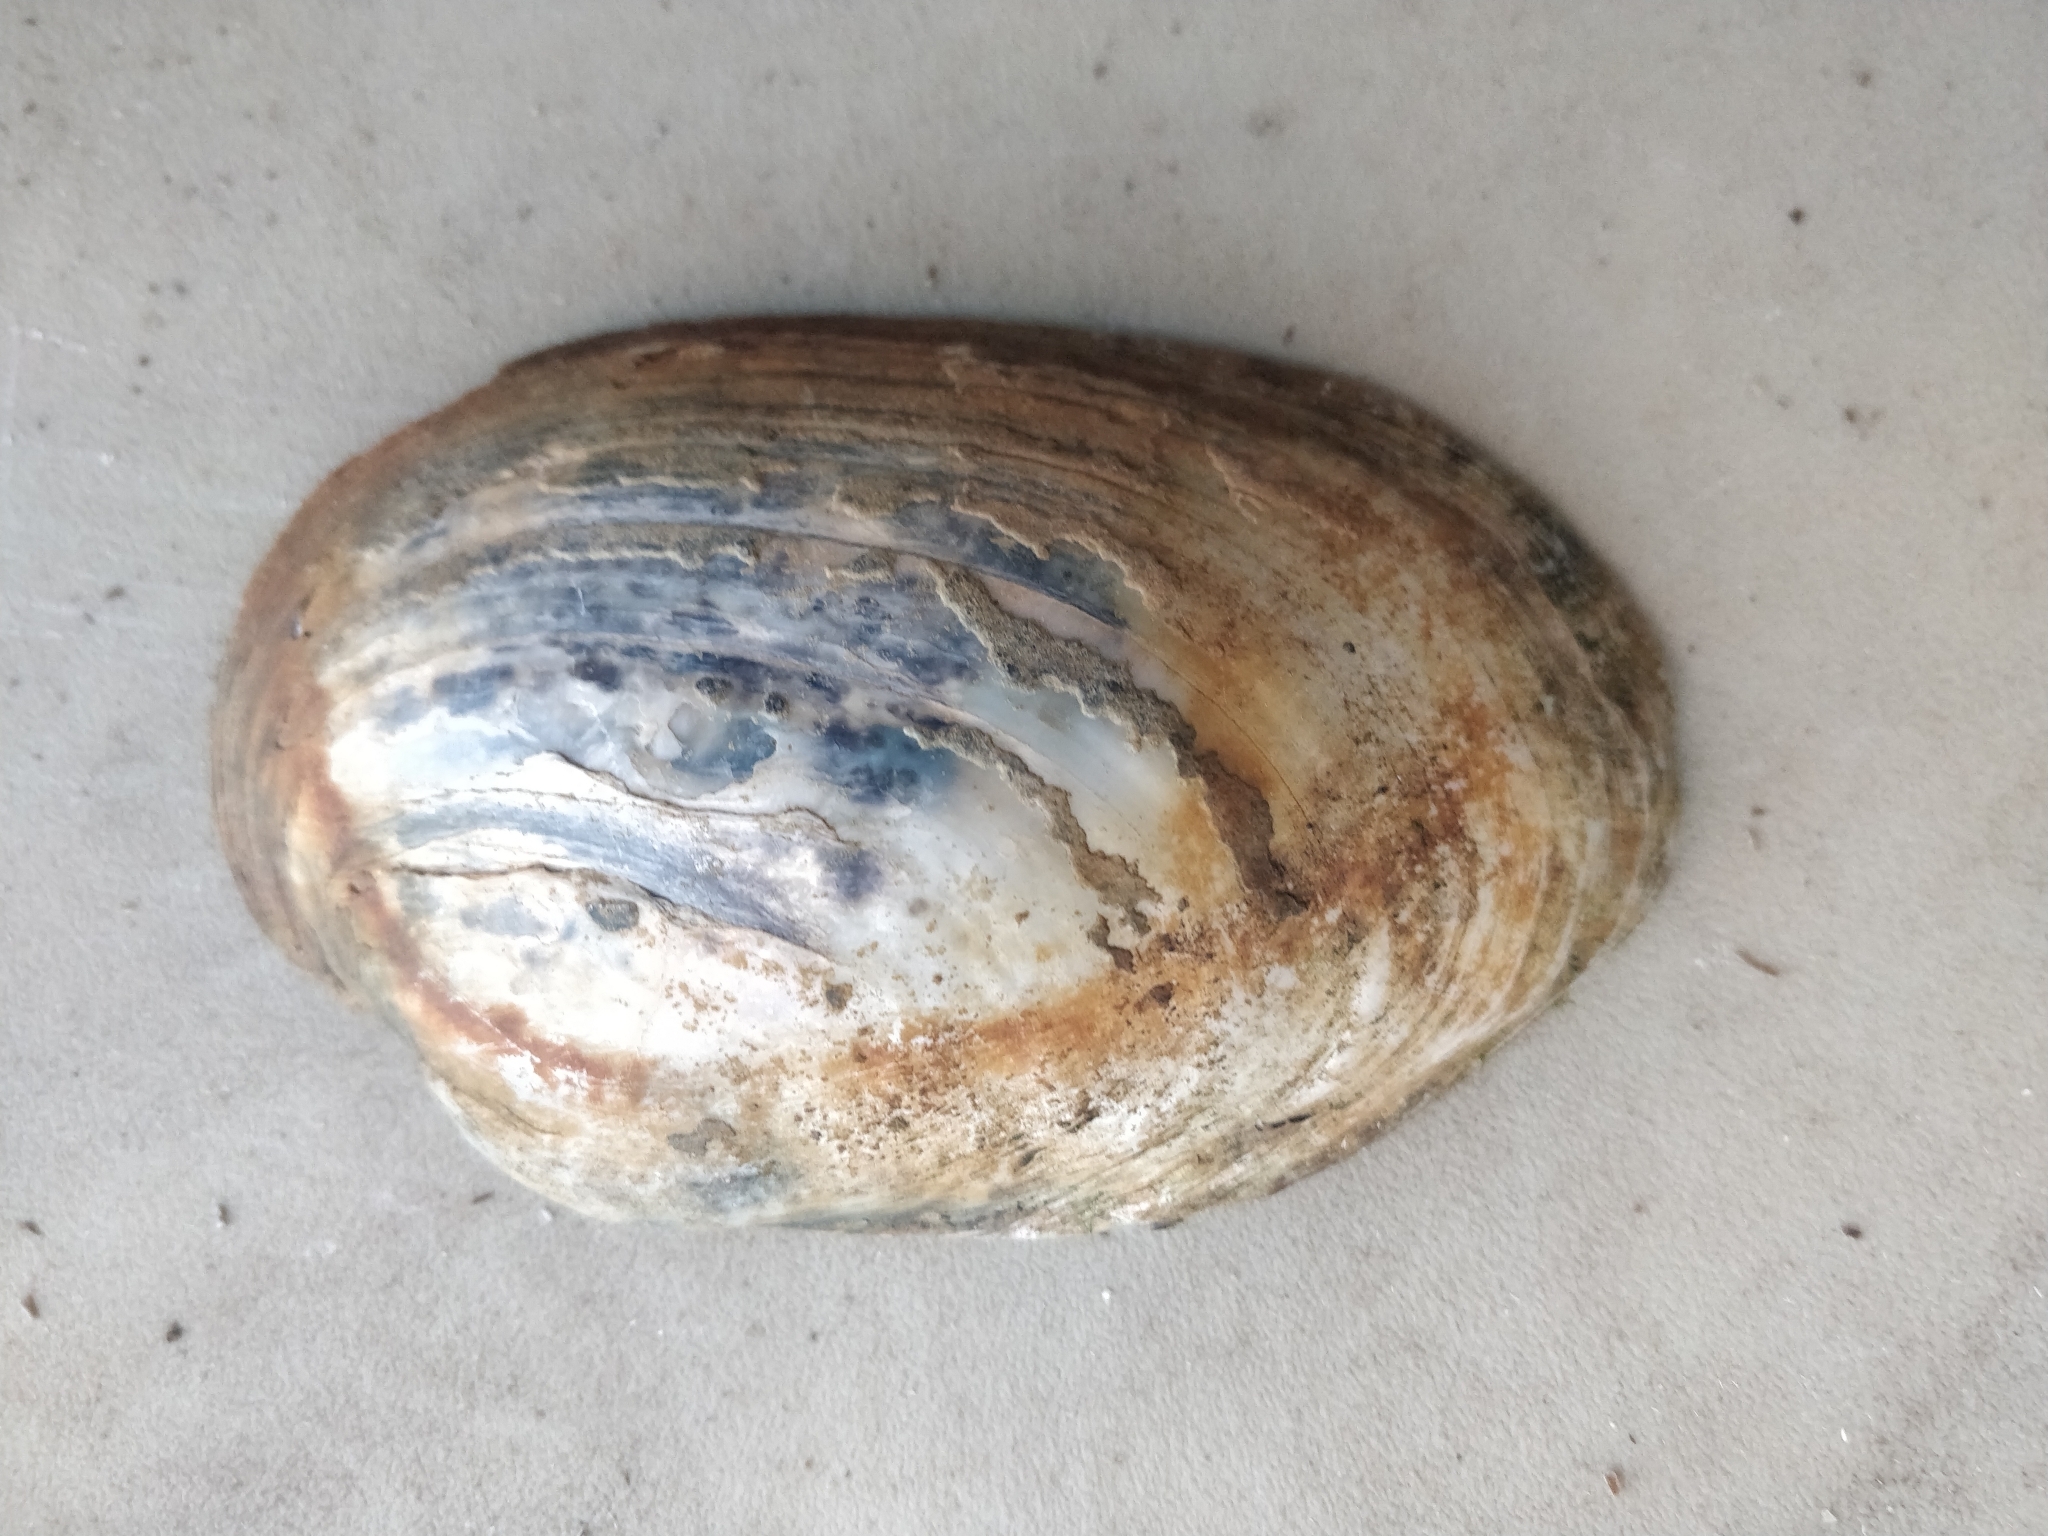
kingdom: Animalia
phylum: Mollusca
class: Bivalvia
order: Unionida
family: Unionidae
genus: Lampsilis
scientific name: Lampsilis cardium
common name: Plain pocketbook
